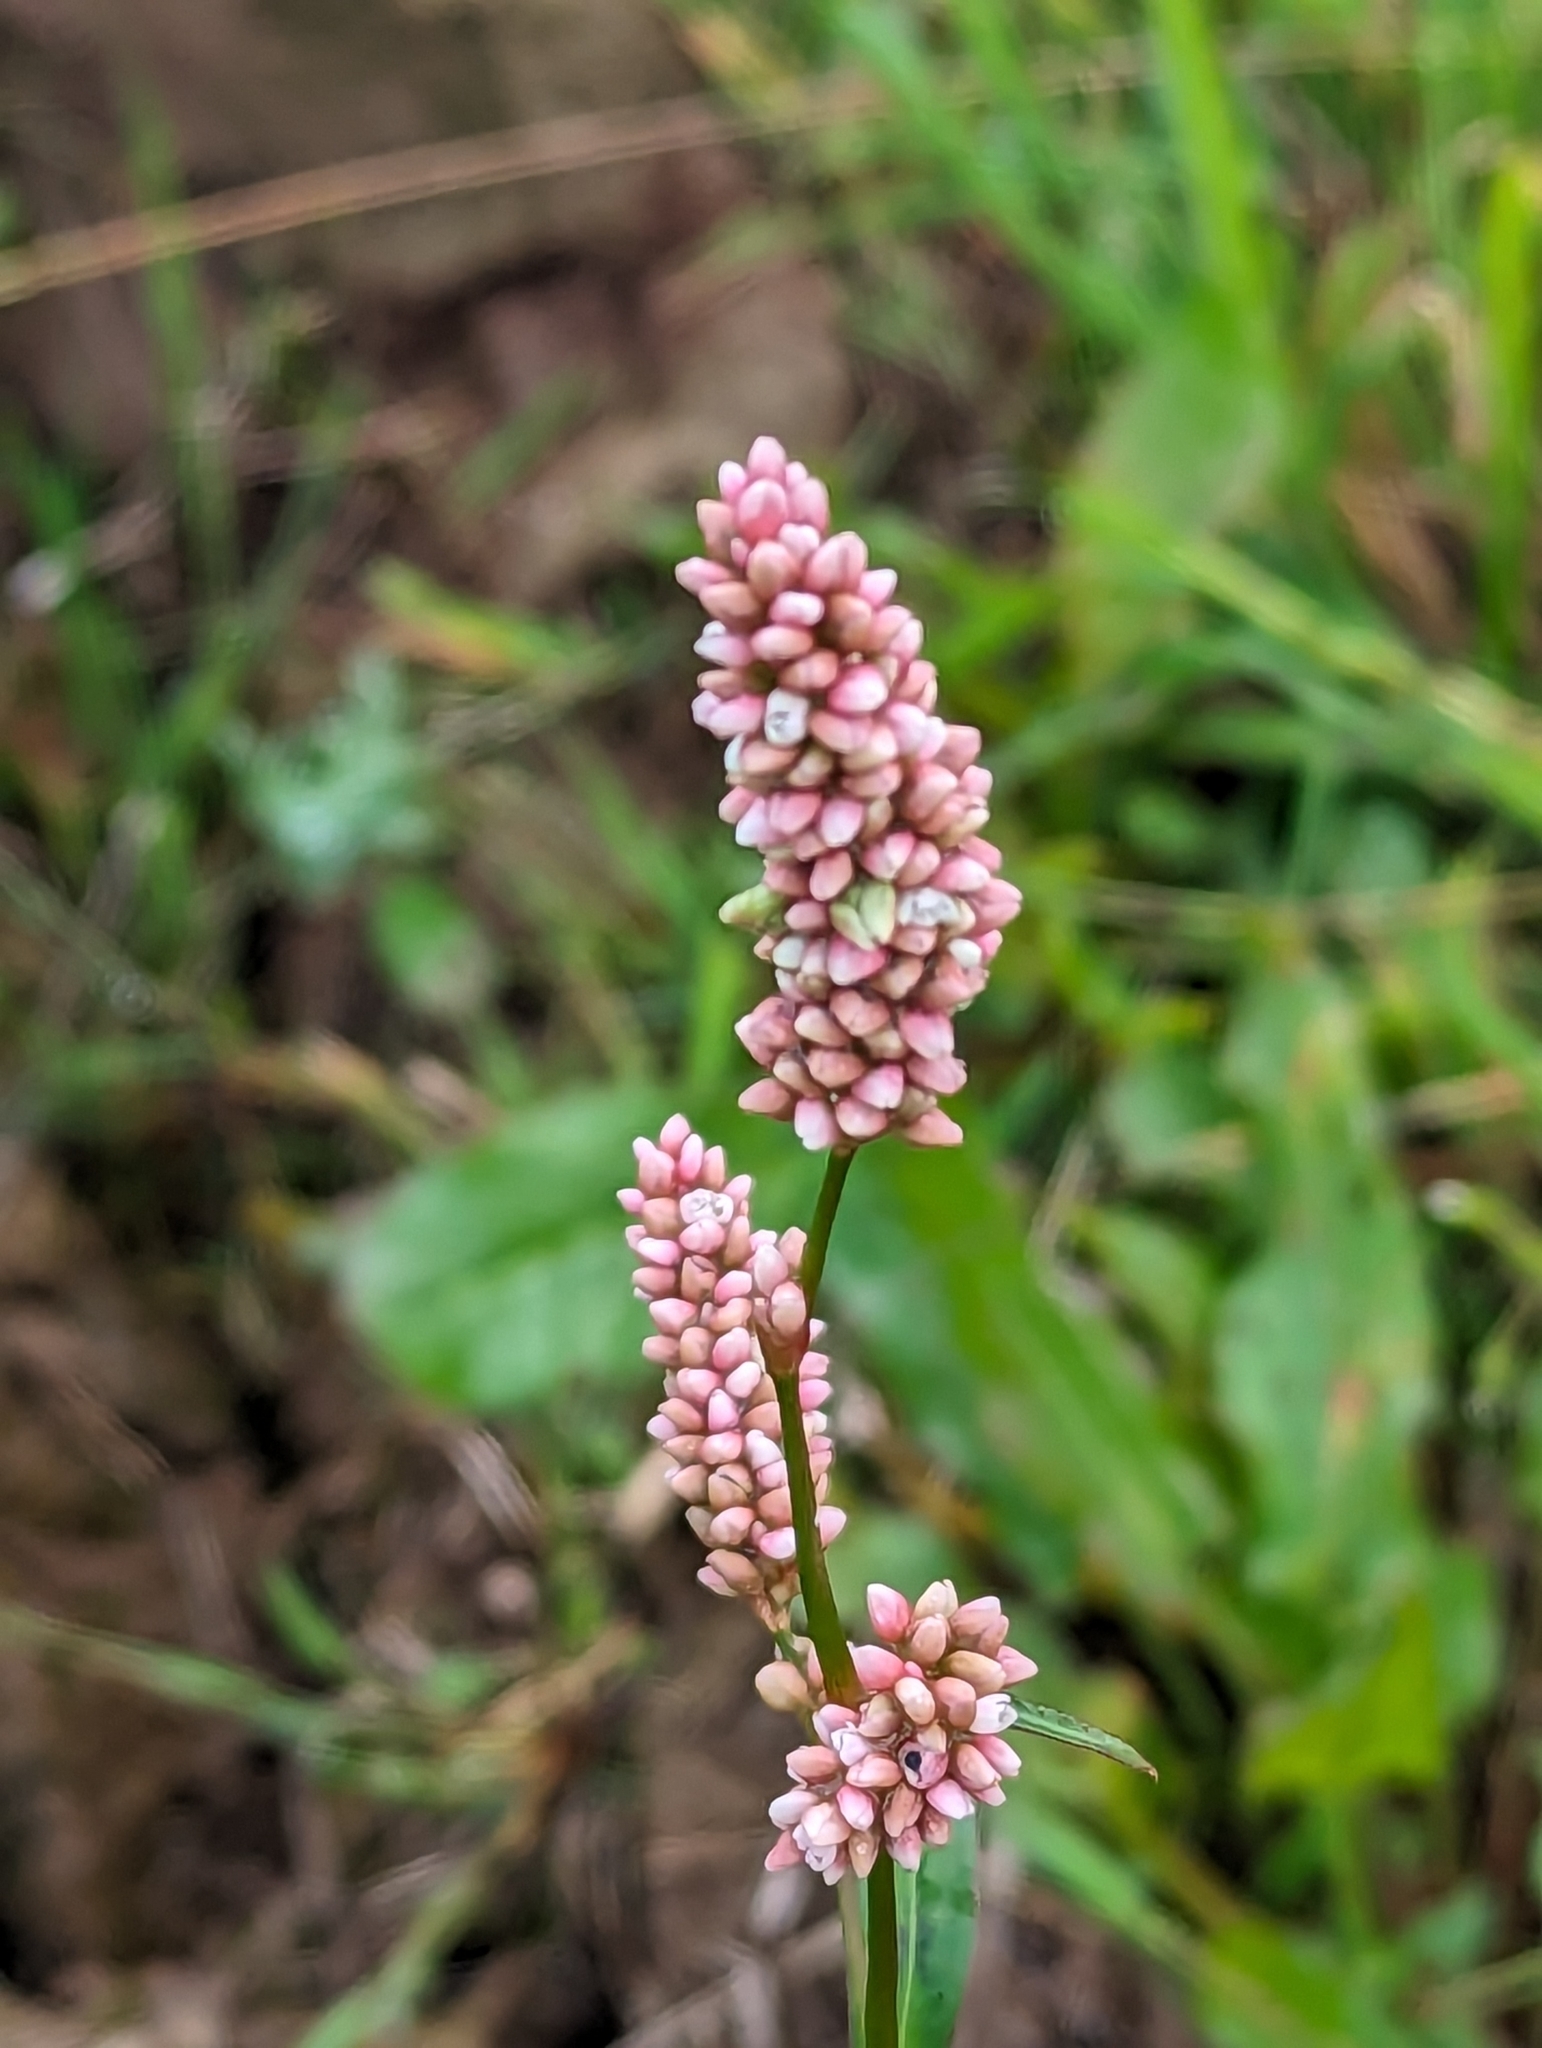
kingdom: Plantae
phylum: Tracheophyta
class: Magnoliopsida
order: Caryophyllales
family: Polygonaceae
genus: Persicaria
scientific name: Persicaria maculosa
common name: Redshank
